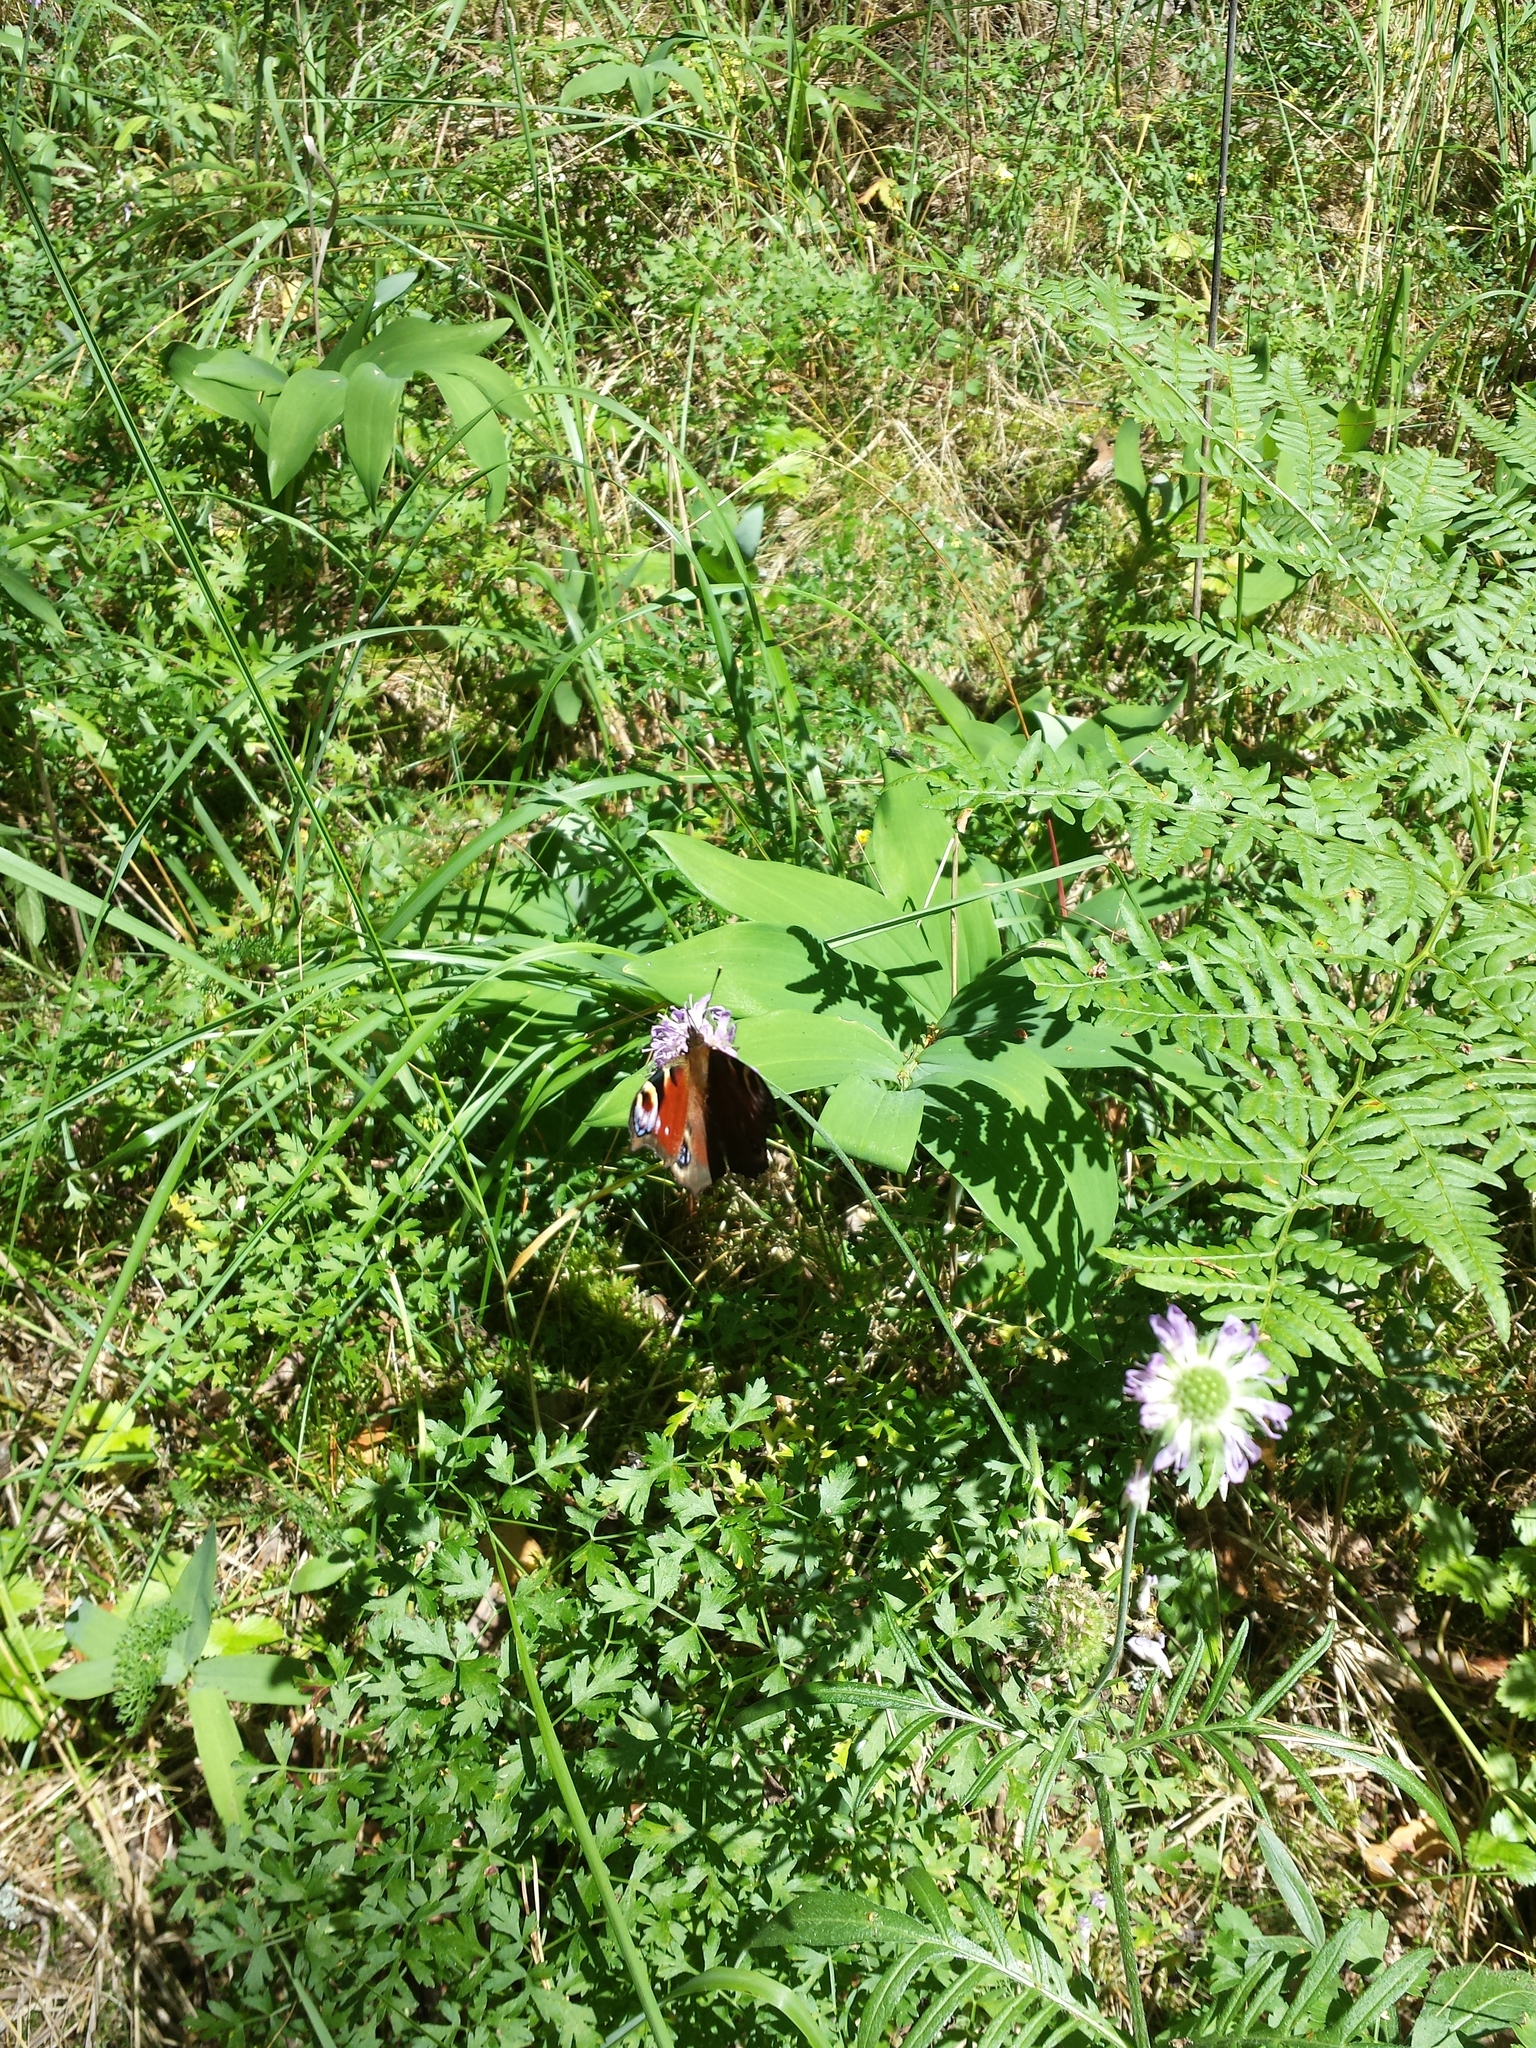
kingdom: Animalia
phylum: Arthropoda
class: Insecta
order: Lepidoptera
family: Nymphalidae
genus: Aglais
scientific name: Aglais io
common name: Peacock
